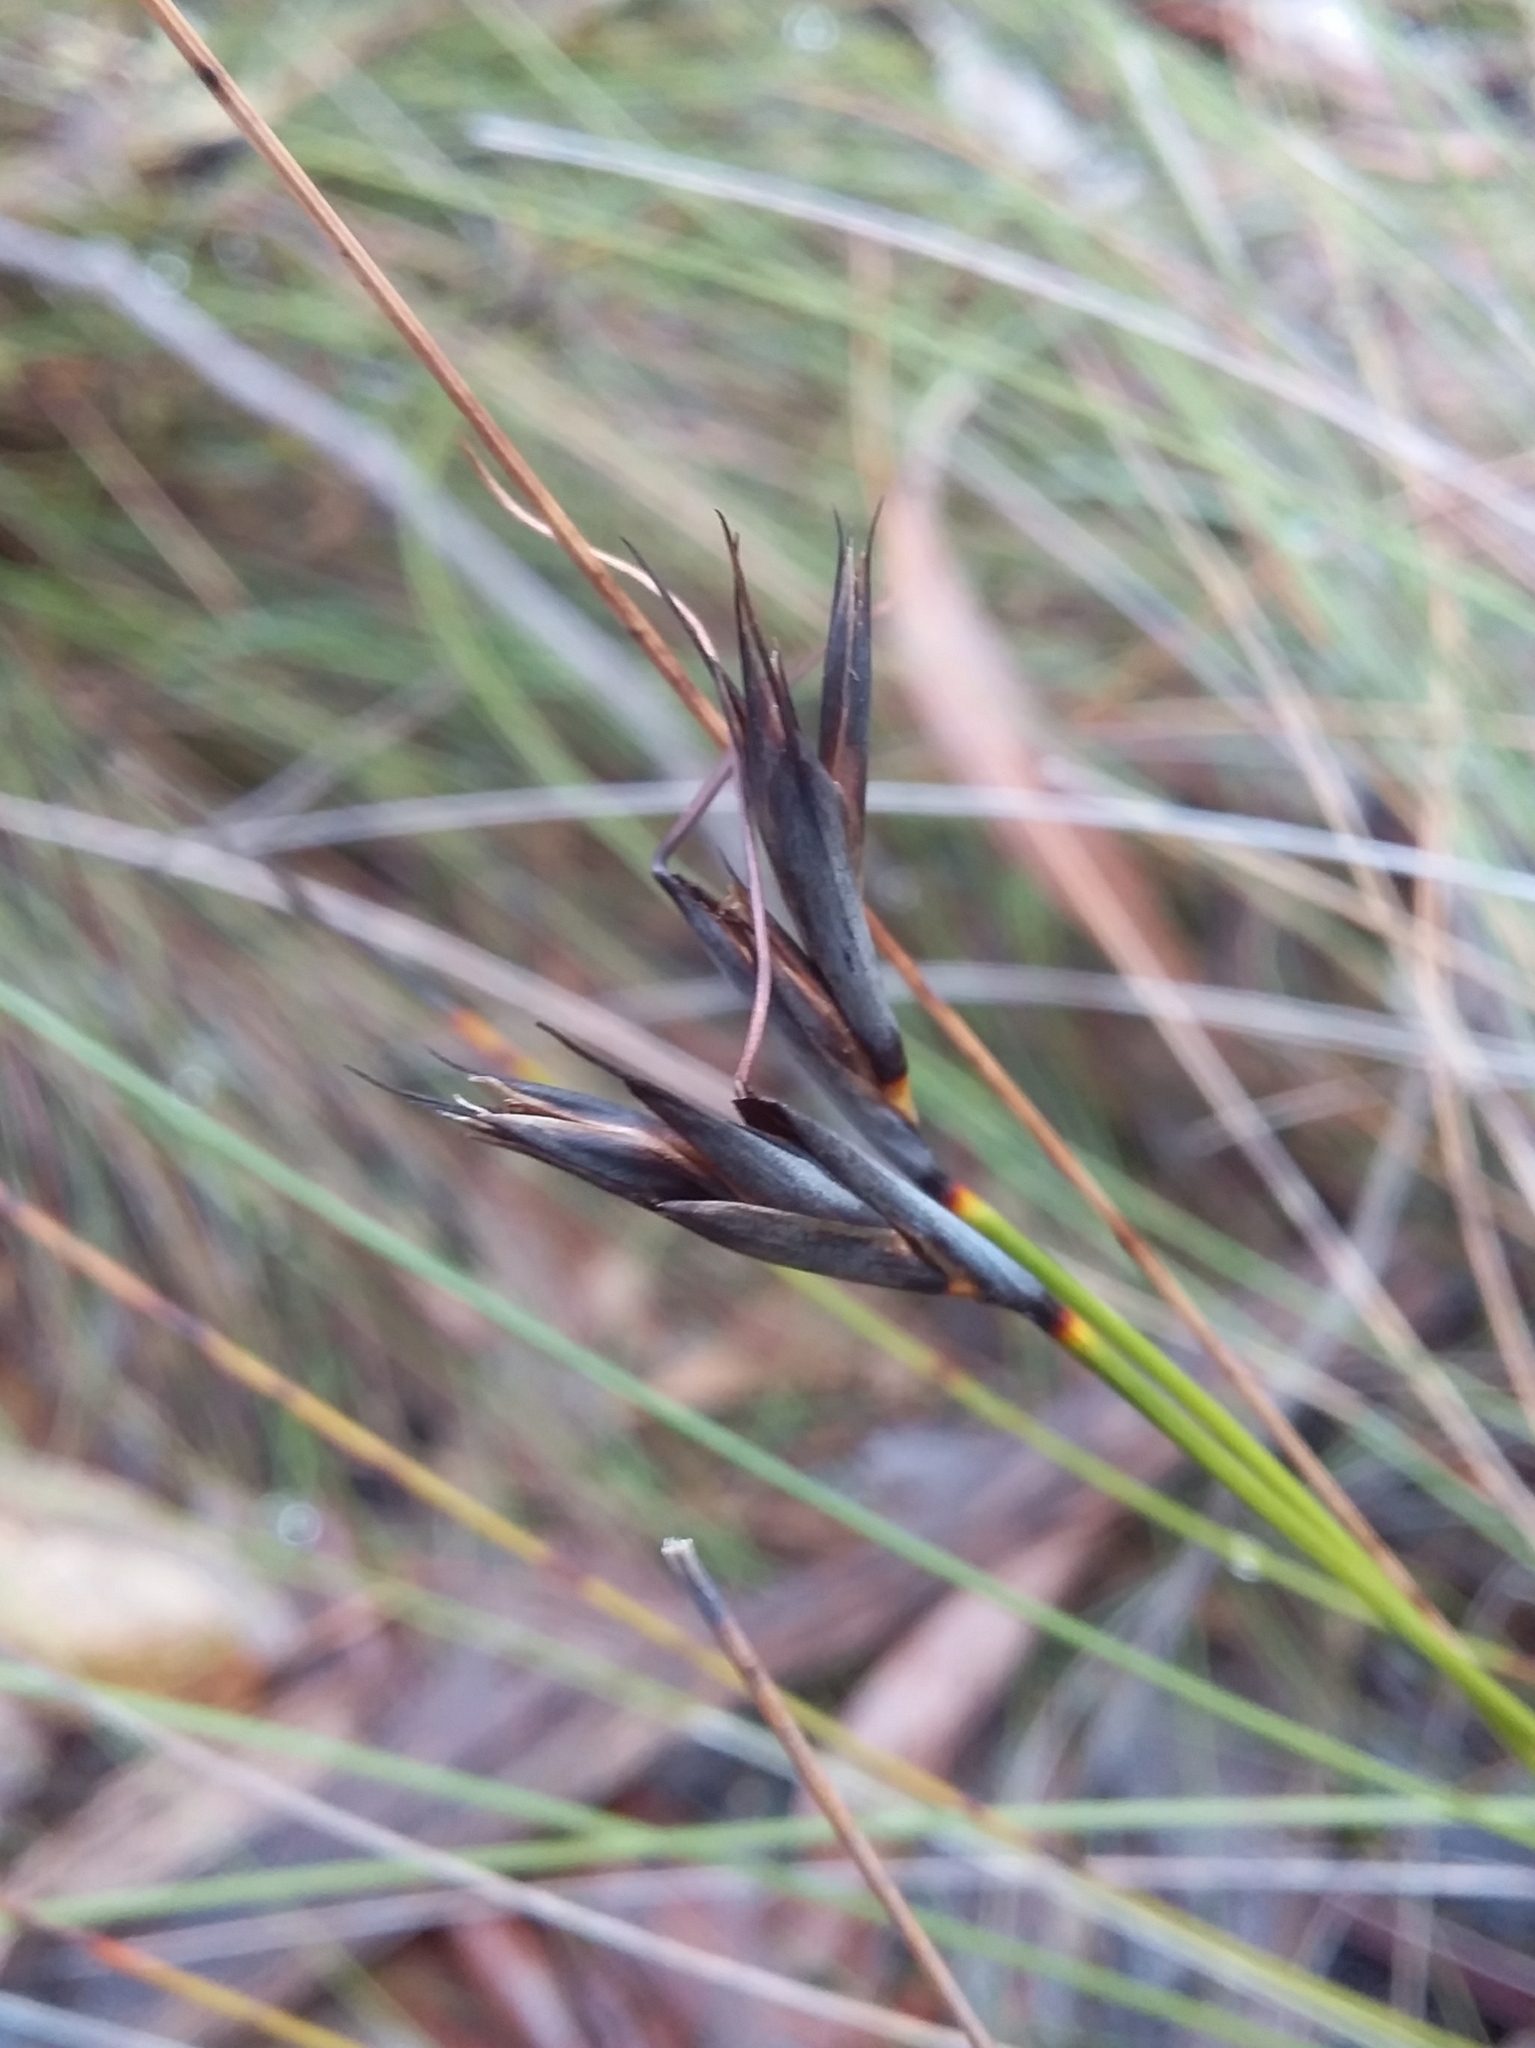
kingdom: Plantae
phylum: Tracheophyta
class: Liliopsida
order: Poales
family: Cyperaceae
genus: Lepidosperma
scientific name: Lepidosperma carphoides
